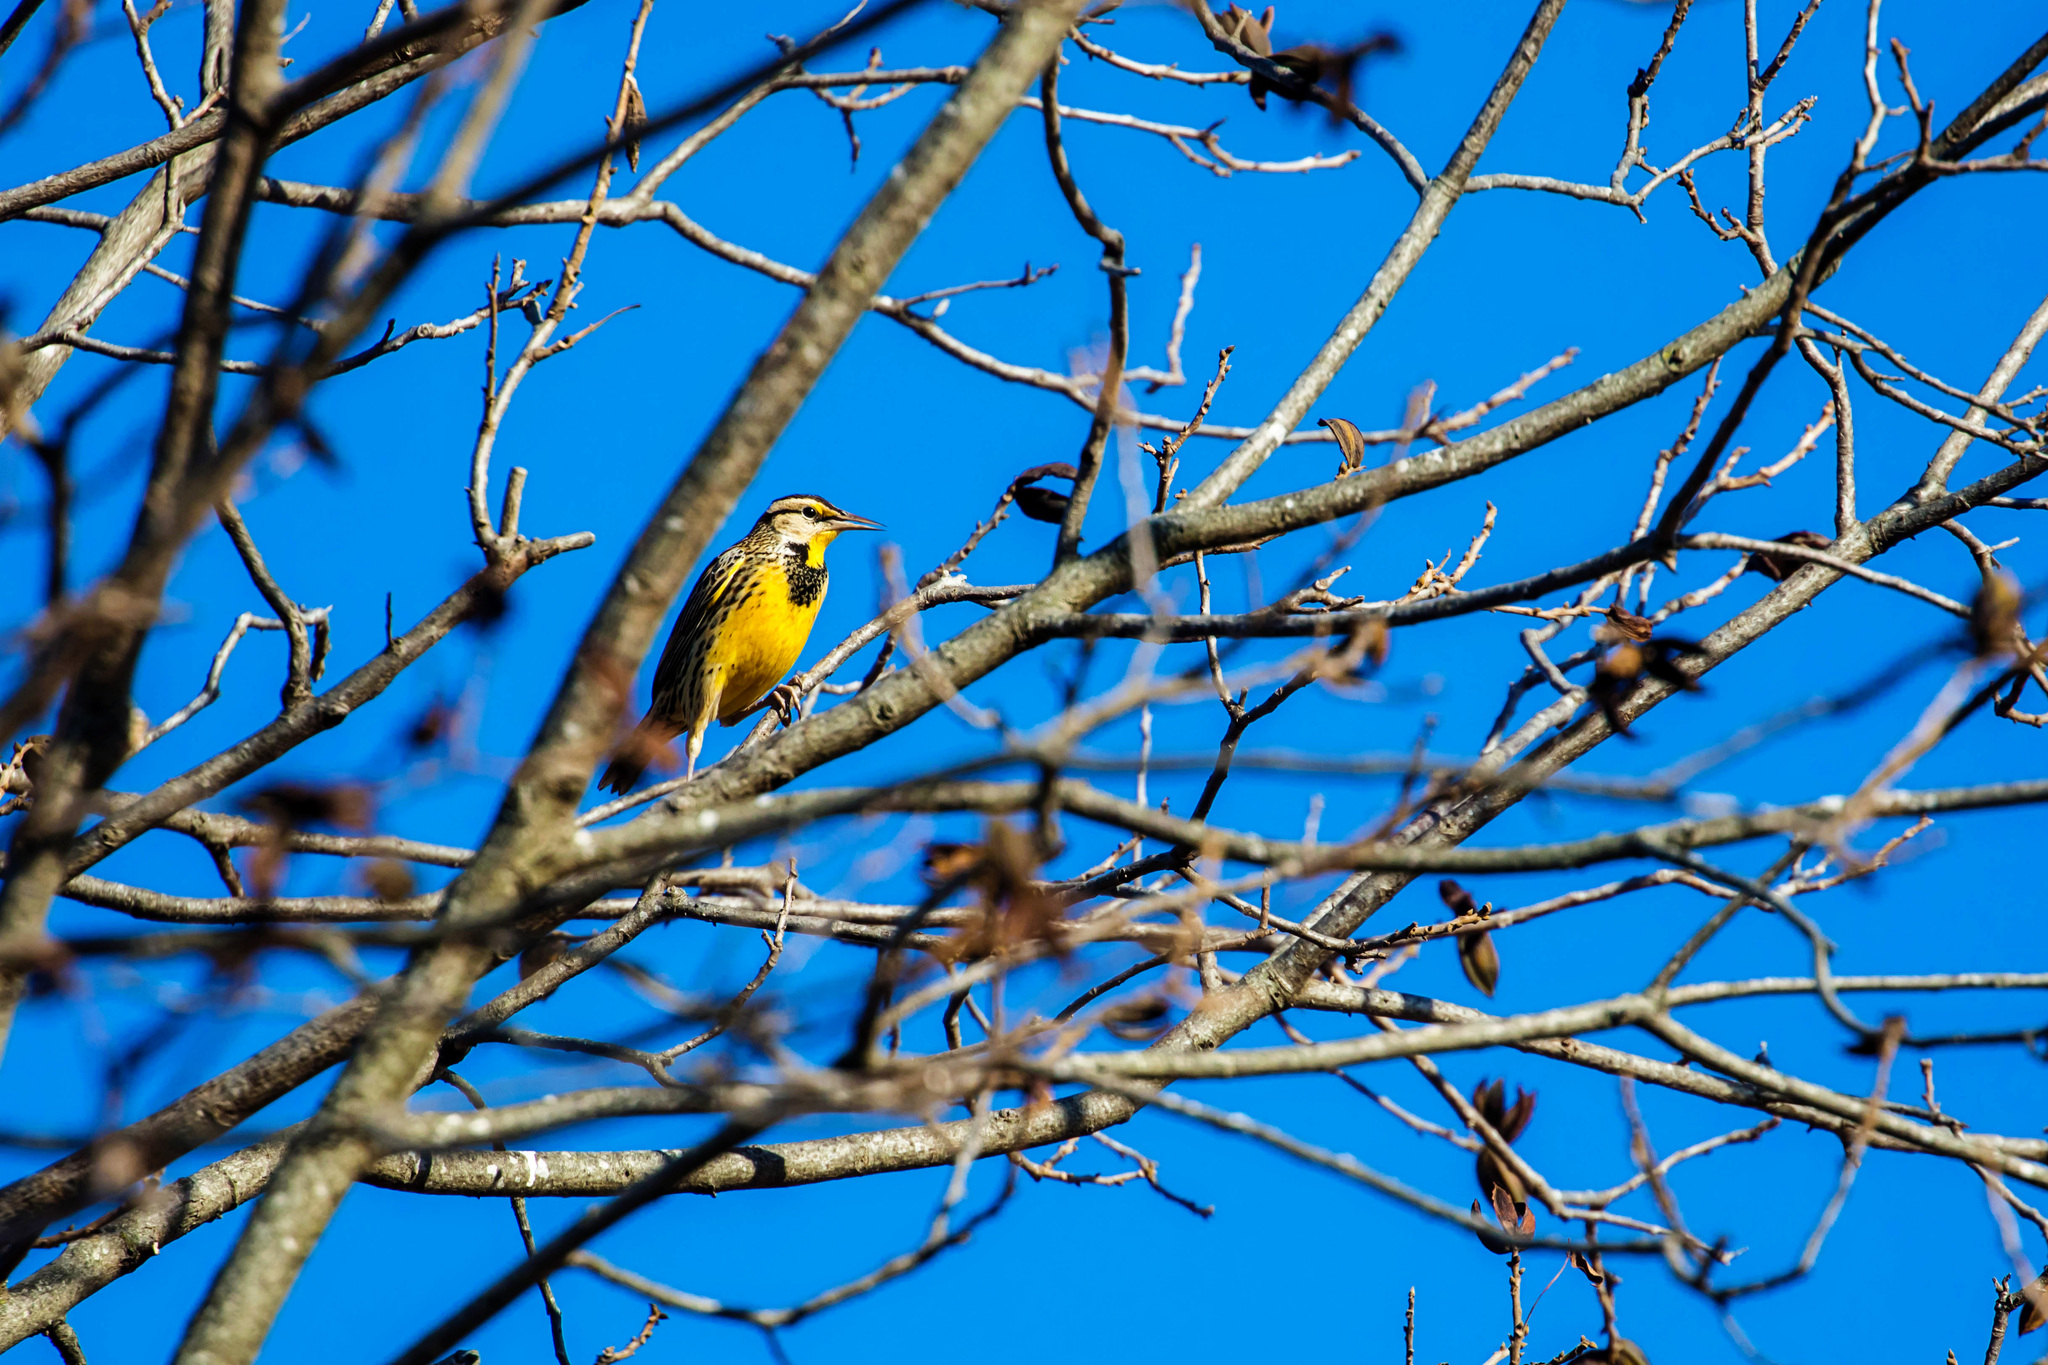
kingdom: Animalia
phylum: Chordata
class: Aves
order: Passeriformes
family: Icteridae
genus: Sturnella
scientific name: Sturnella magna
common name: Eastern meadowlark
